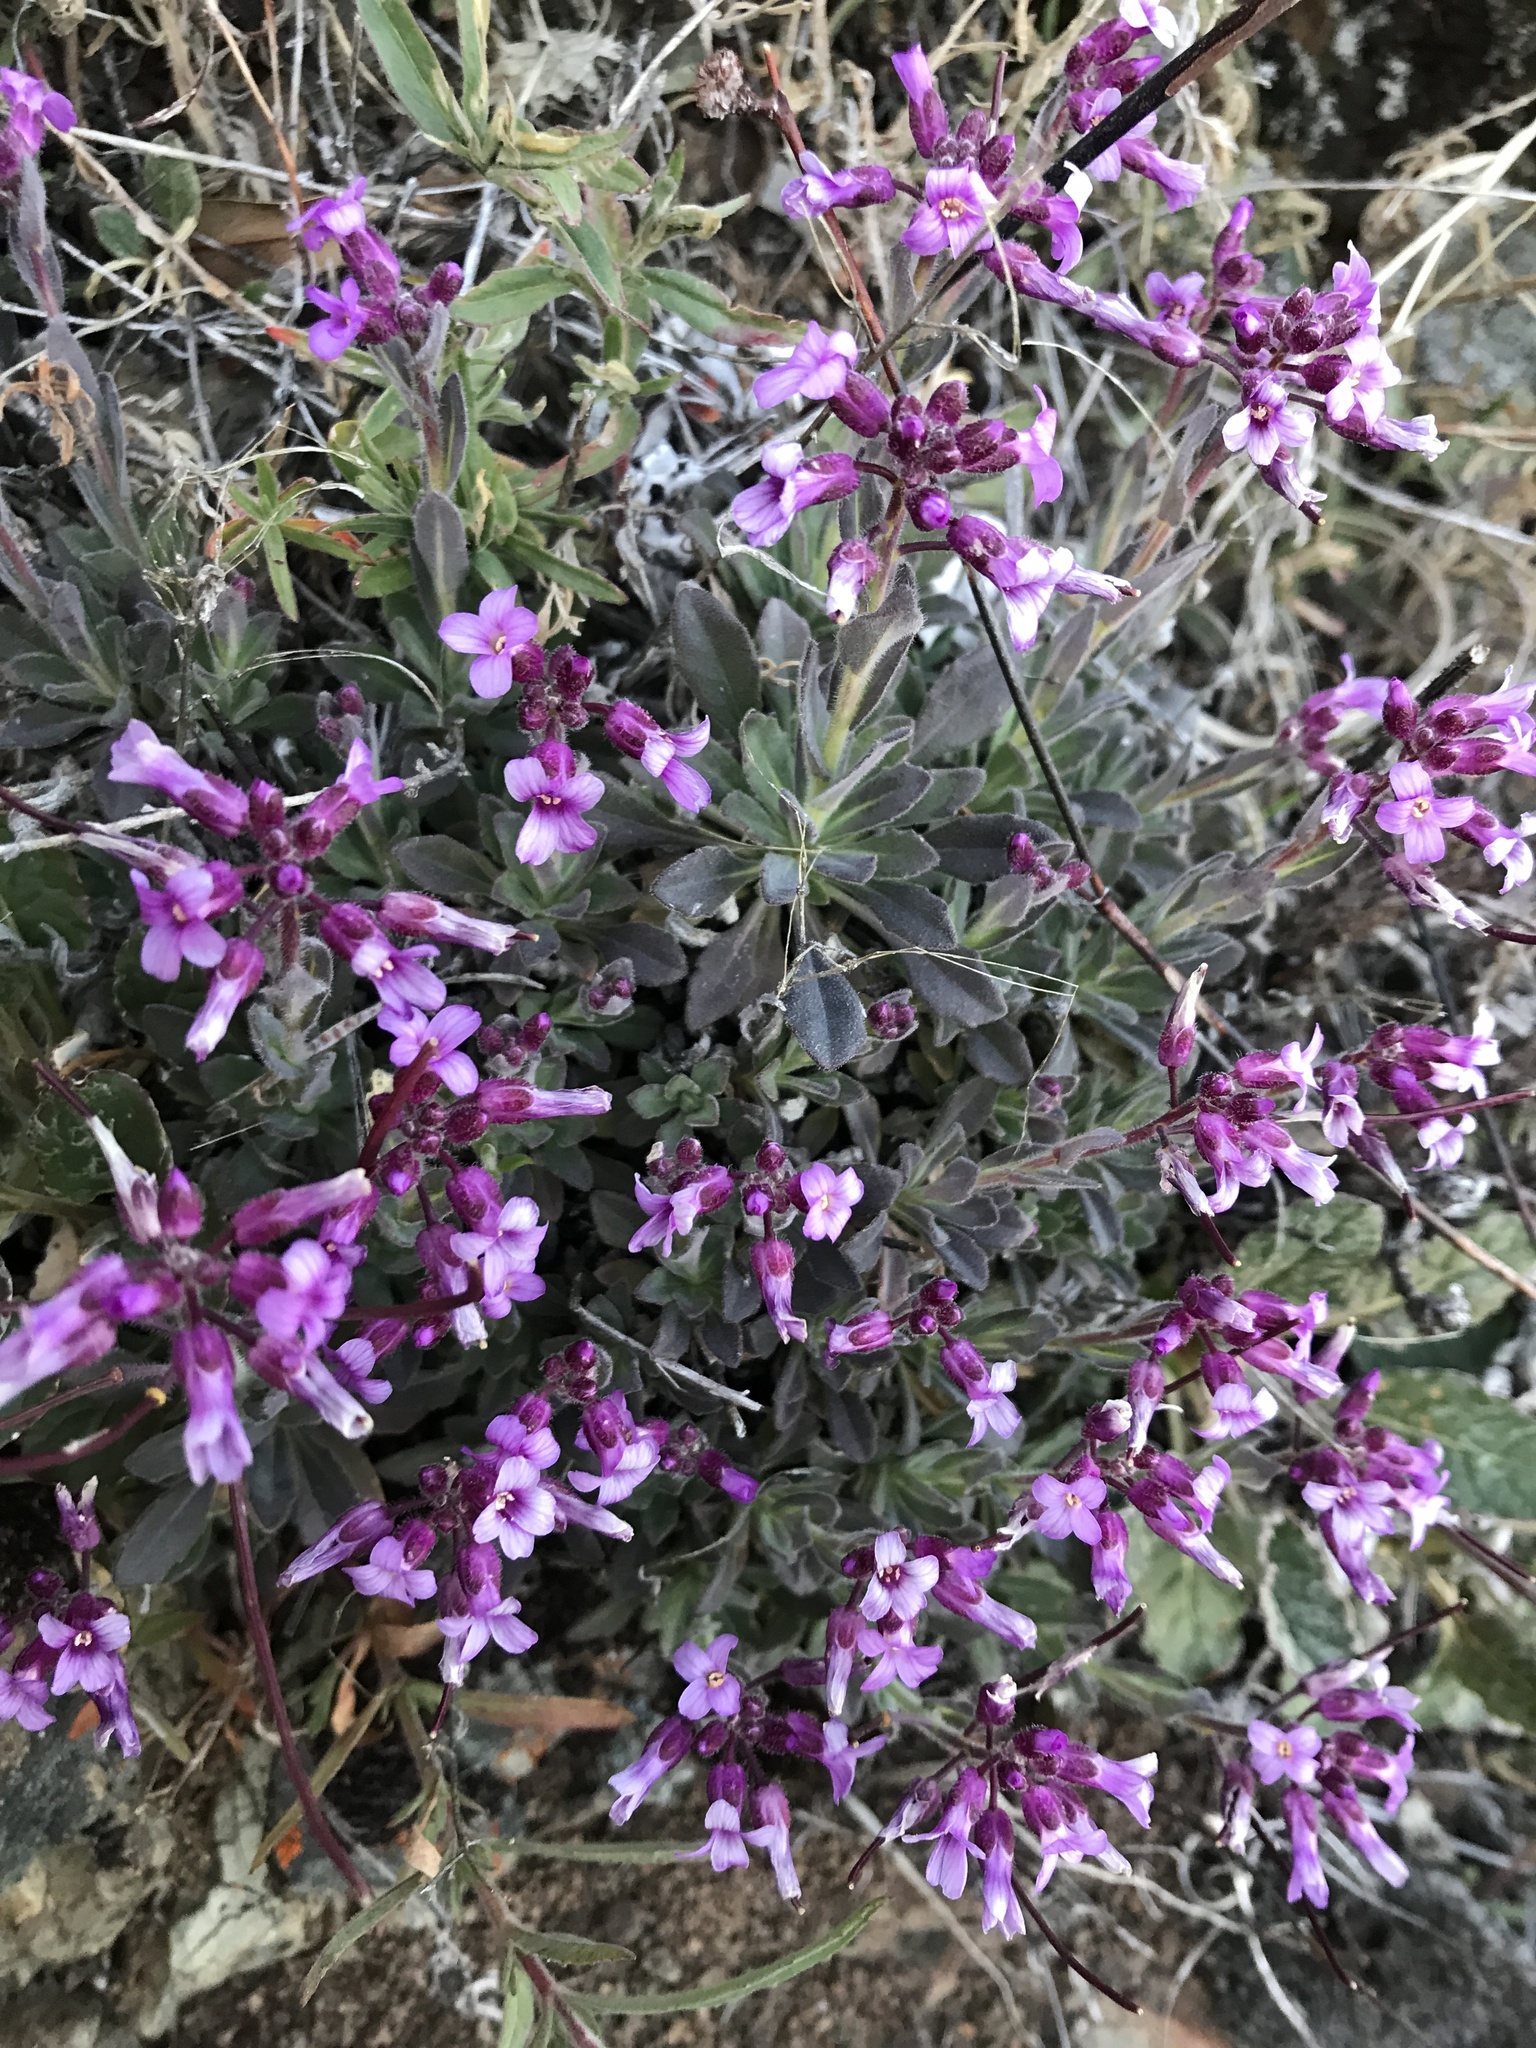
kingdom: Plantae
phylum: Tracheophyta
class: Magnoliopsida
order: Brassicales
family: Brassicaceae
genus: Boechera
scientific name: Boechera breweri
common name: Brewer's rockcress
